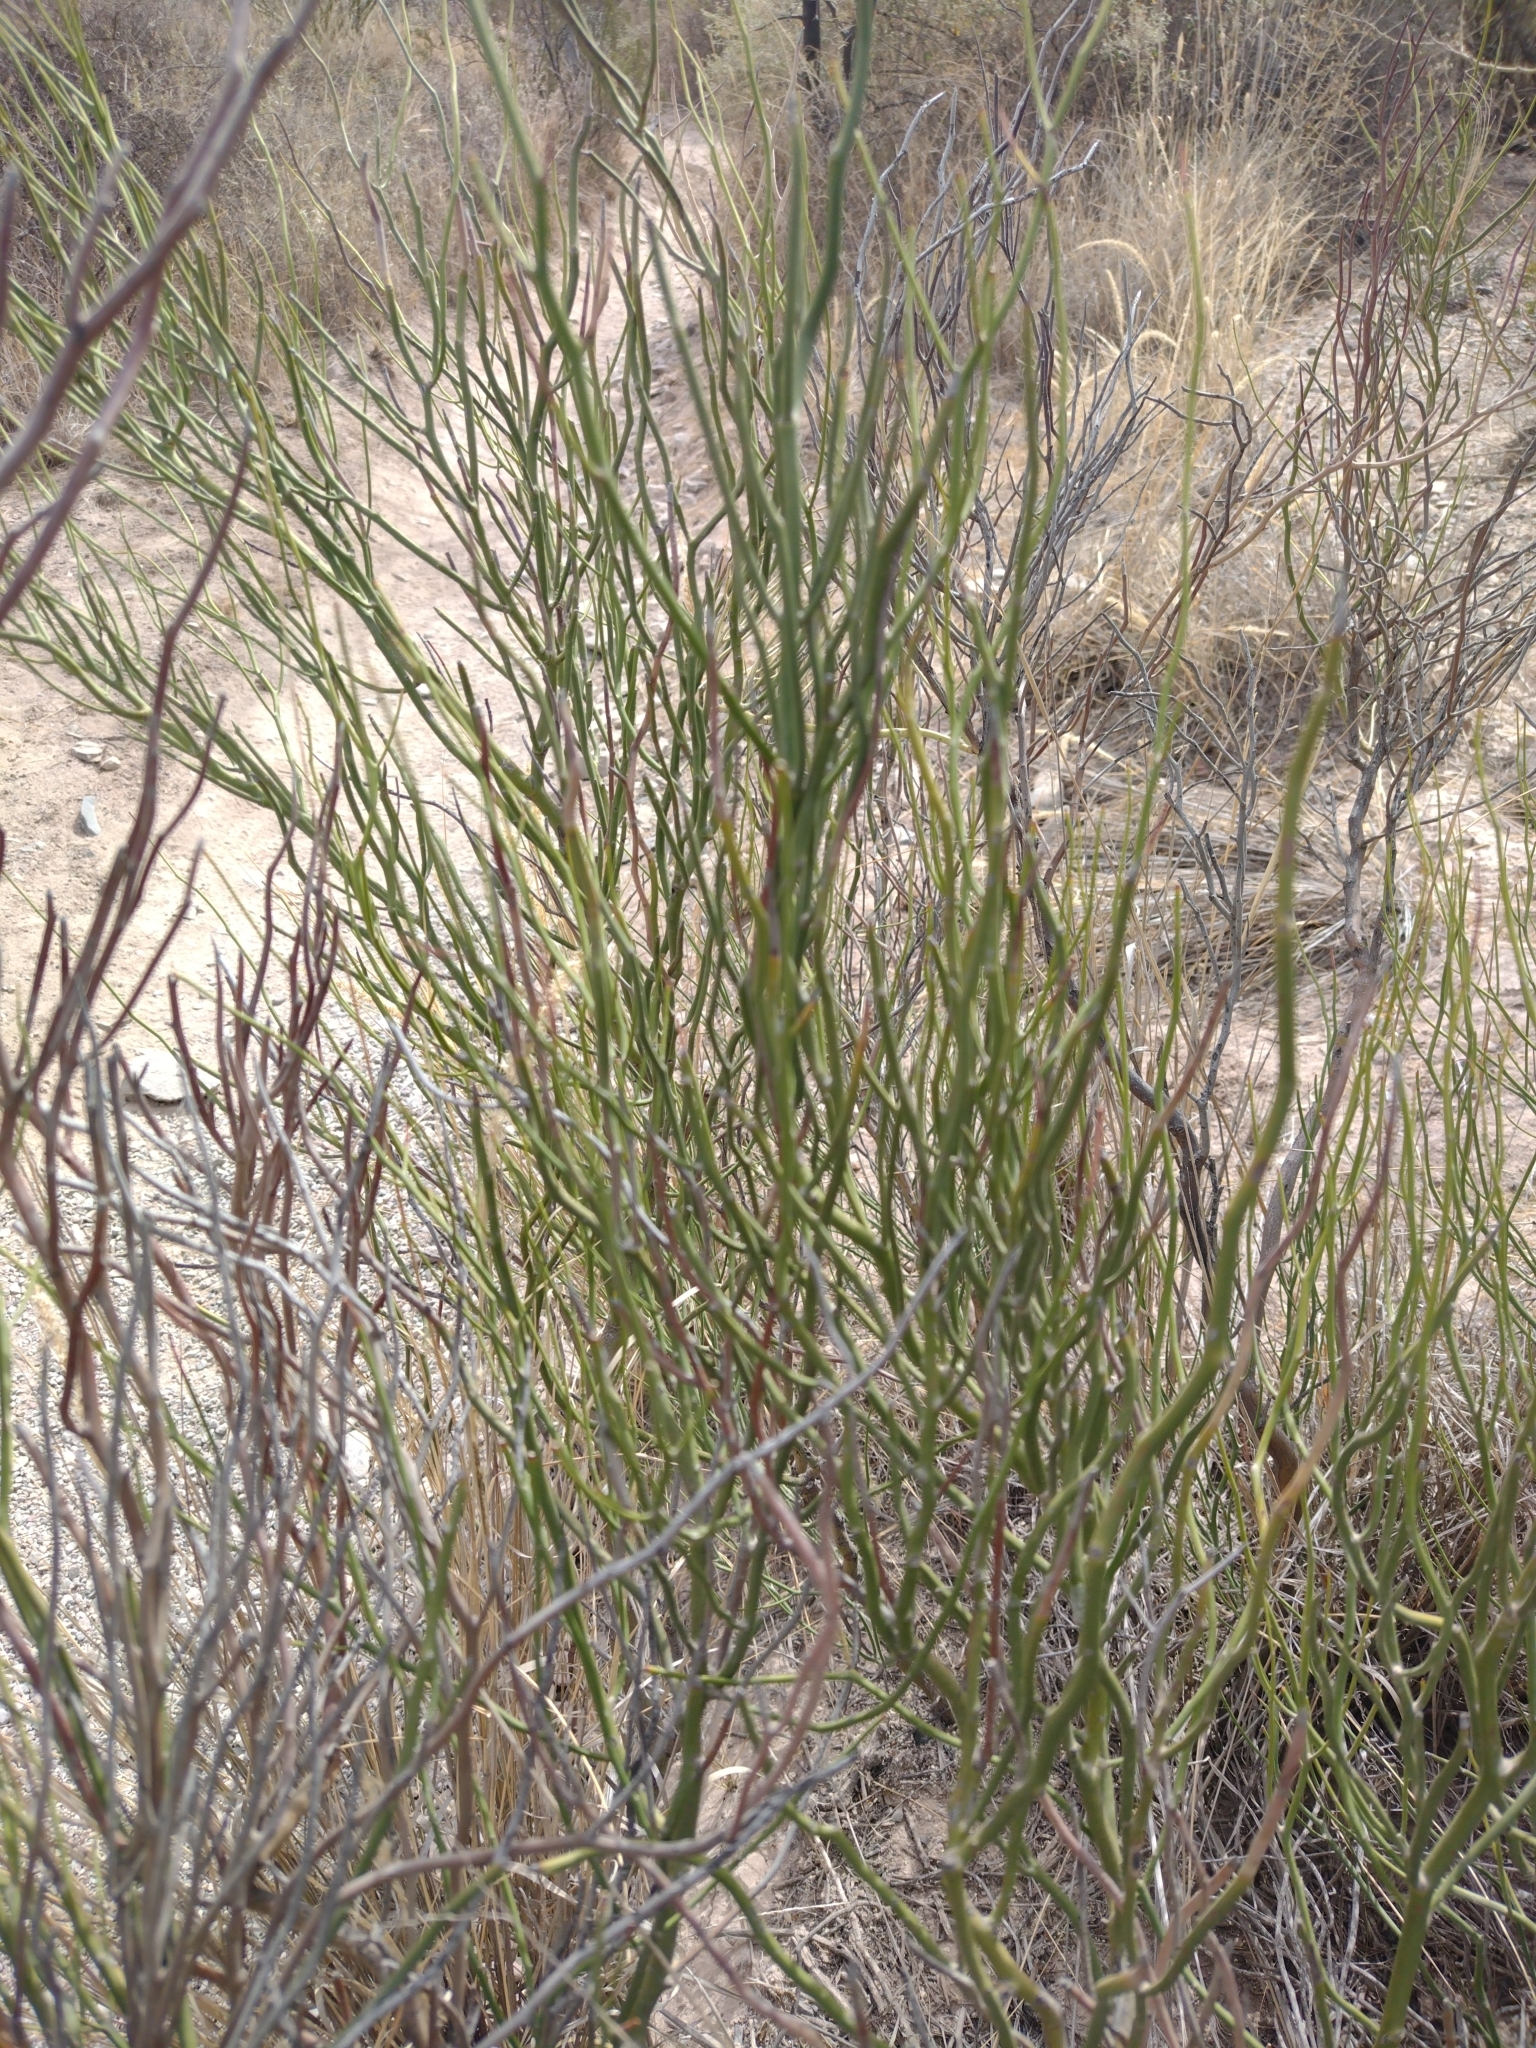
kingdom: Plantae
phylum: Tracheophyta
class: Magnoliopsida
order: Fabales
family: Fabaceae
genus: Senna
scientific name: Senna aphylla
